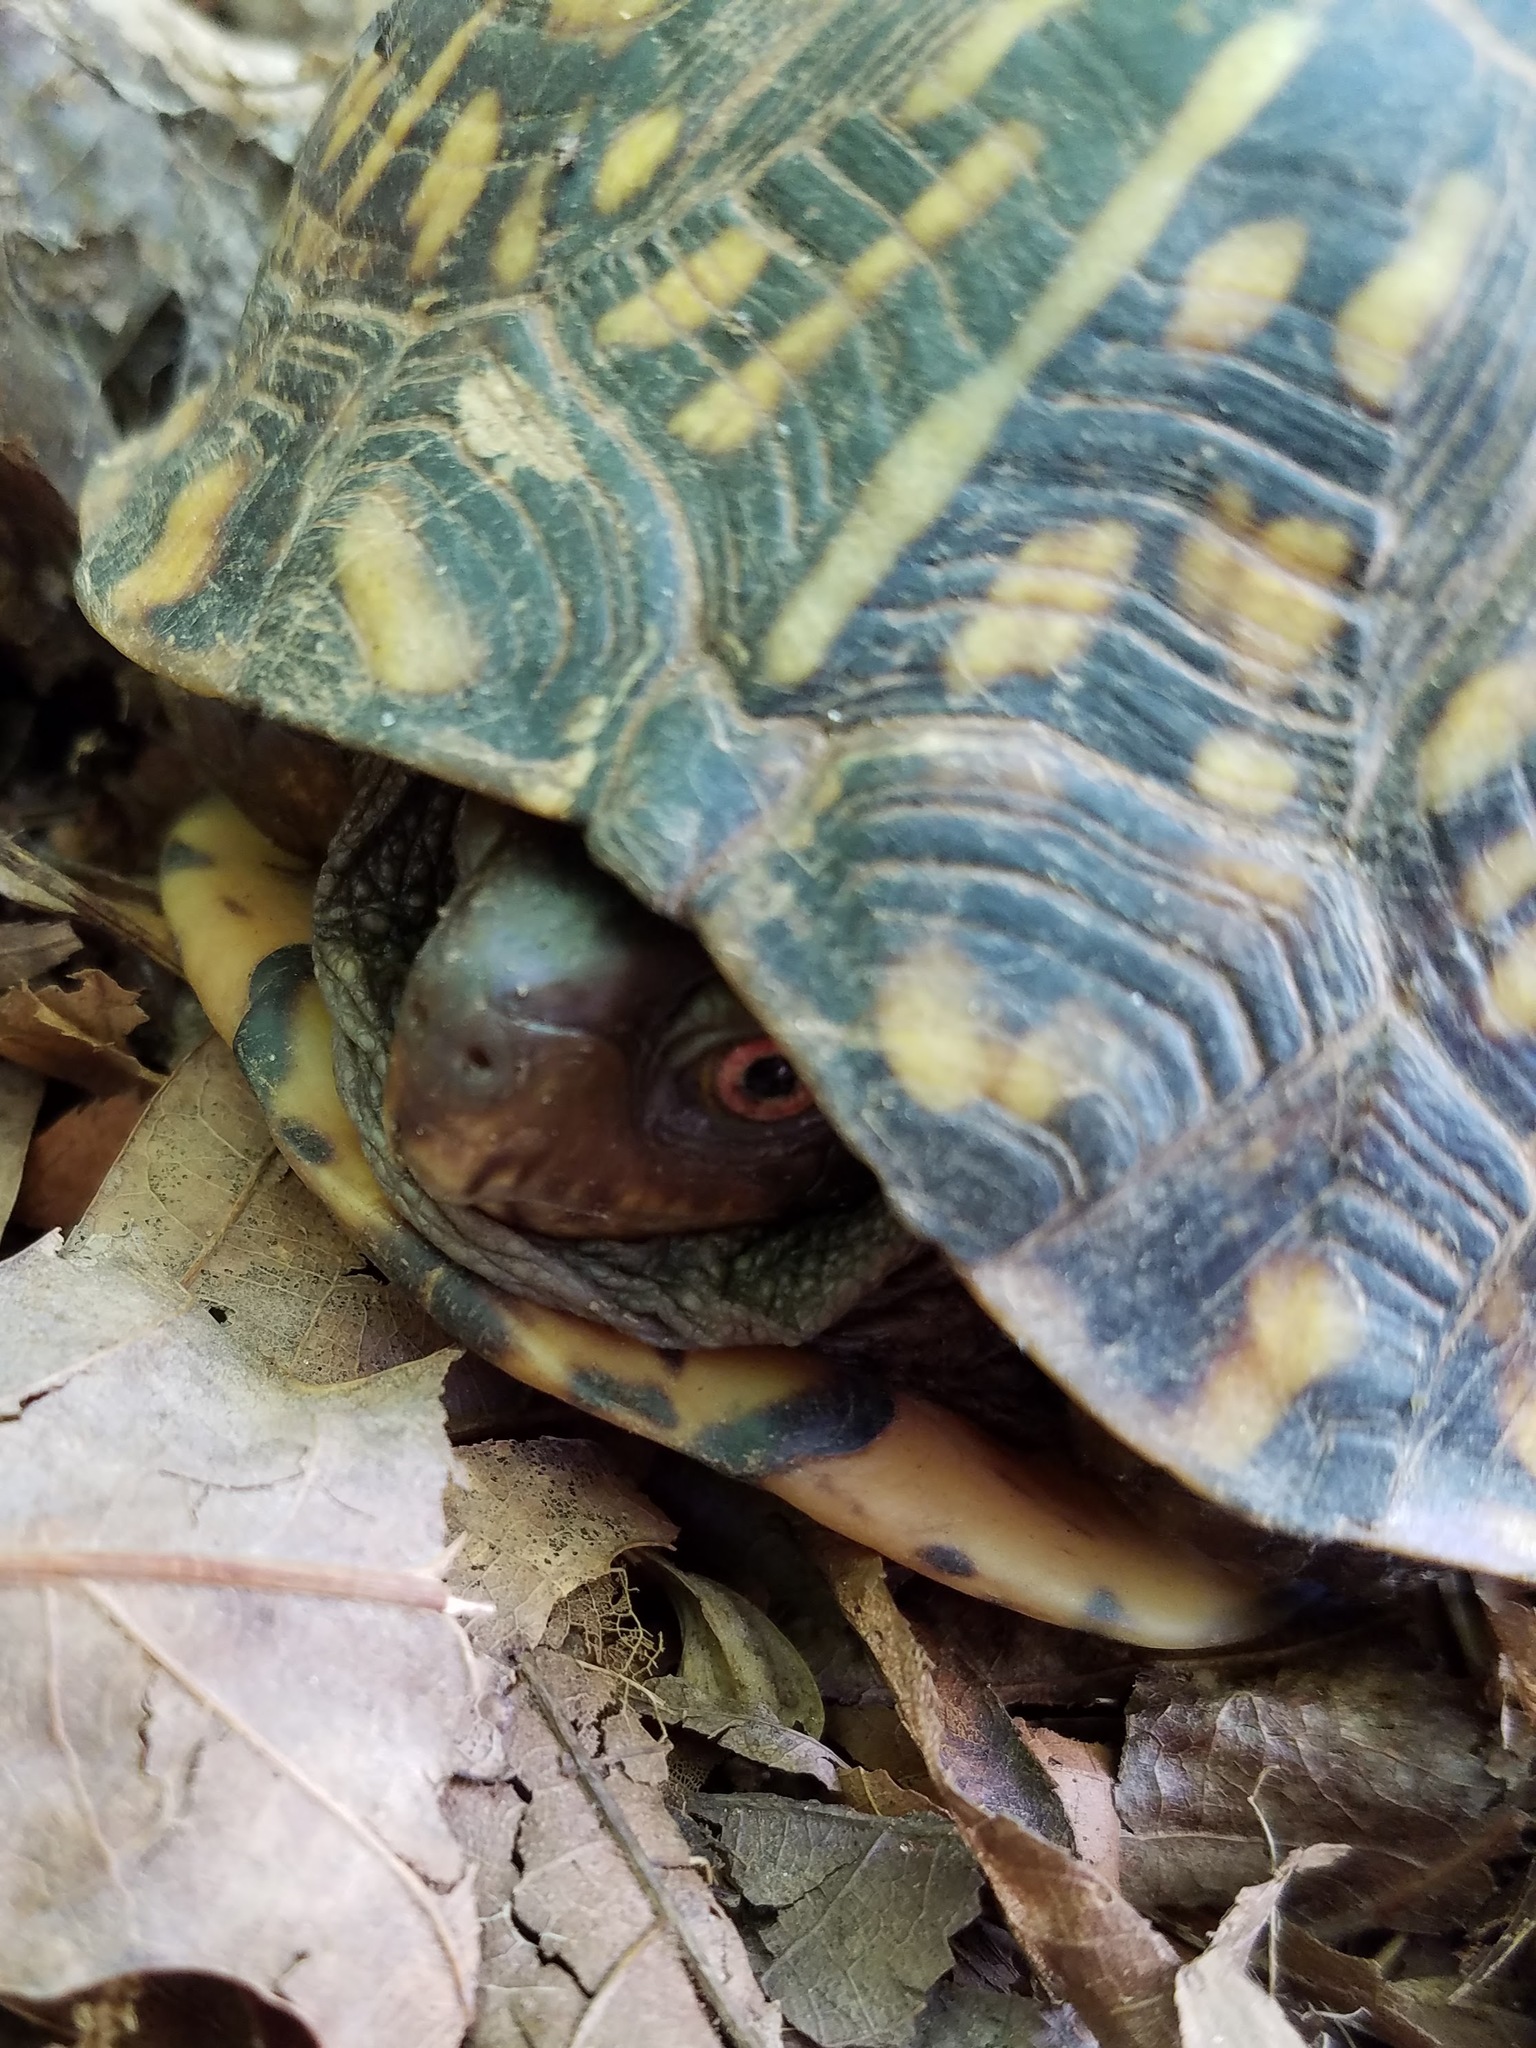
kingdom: Animalia
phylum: Chordata
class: Testudines
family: Emydidae
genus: Terrapene
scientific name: Terrapene carolina
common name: Common box turtle
